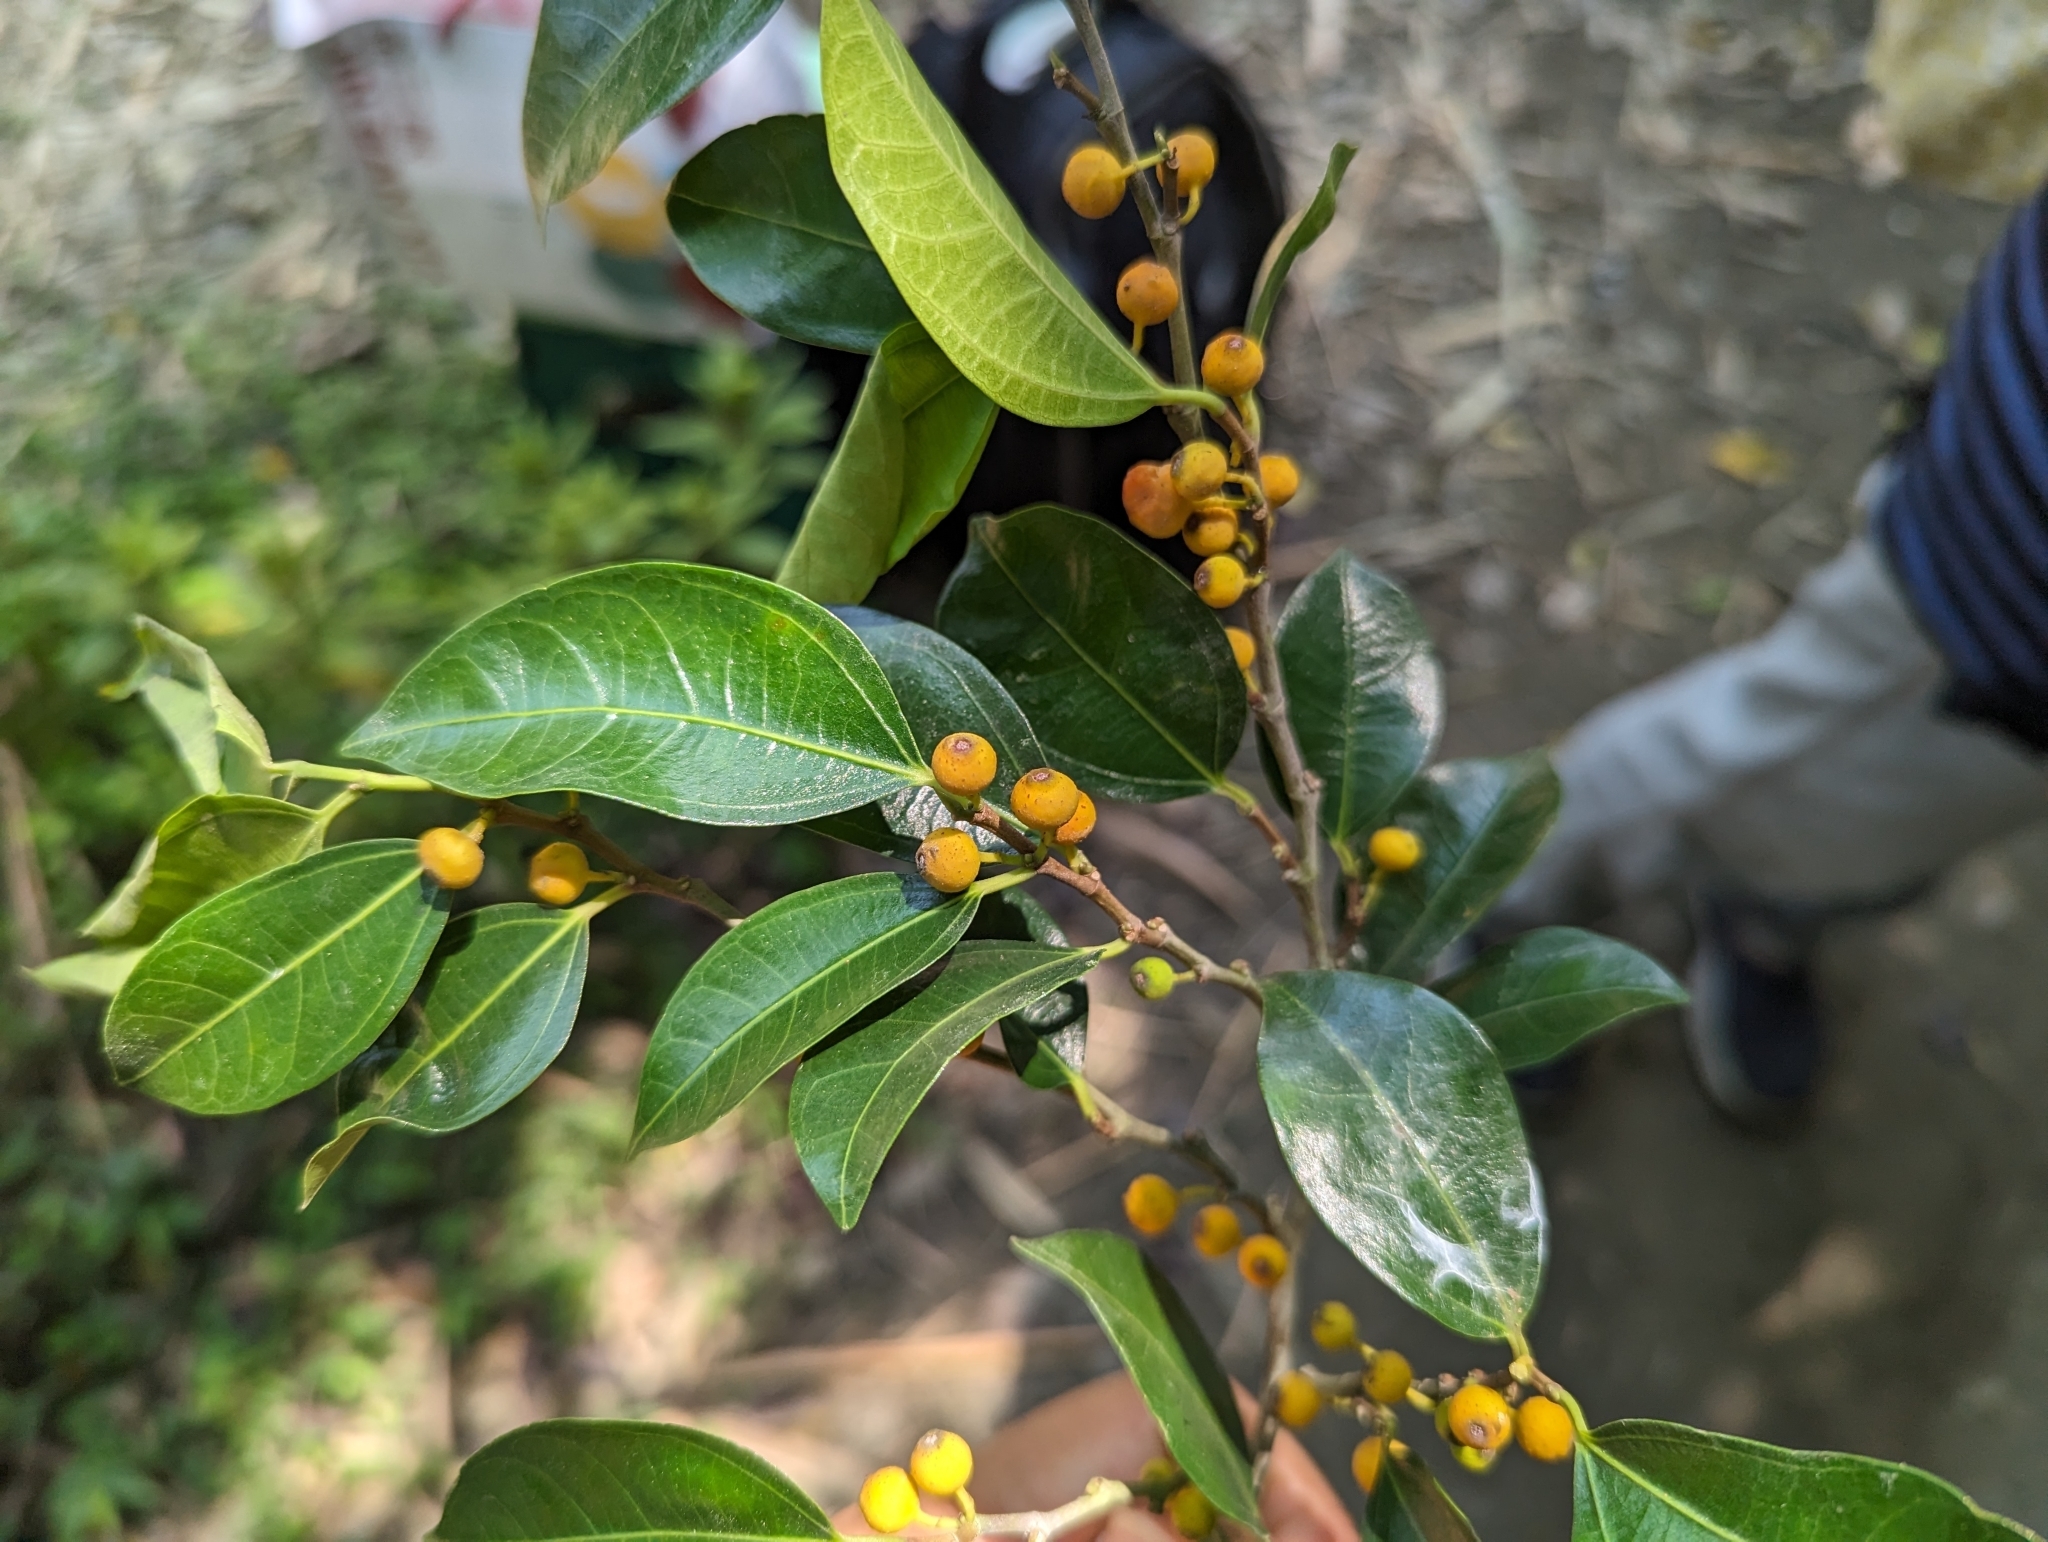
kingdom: Plantae
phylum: Tracheophyta
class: Magnoliopsida
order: Rosales
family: Moraceae
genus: Ficus
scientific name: Ficus ampelos
